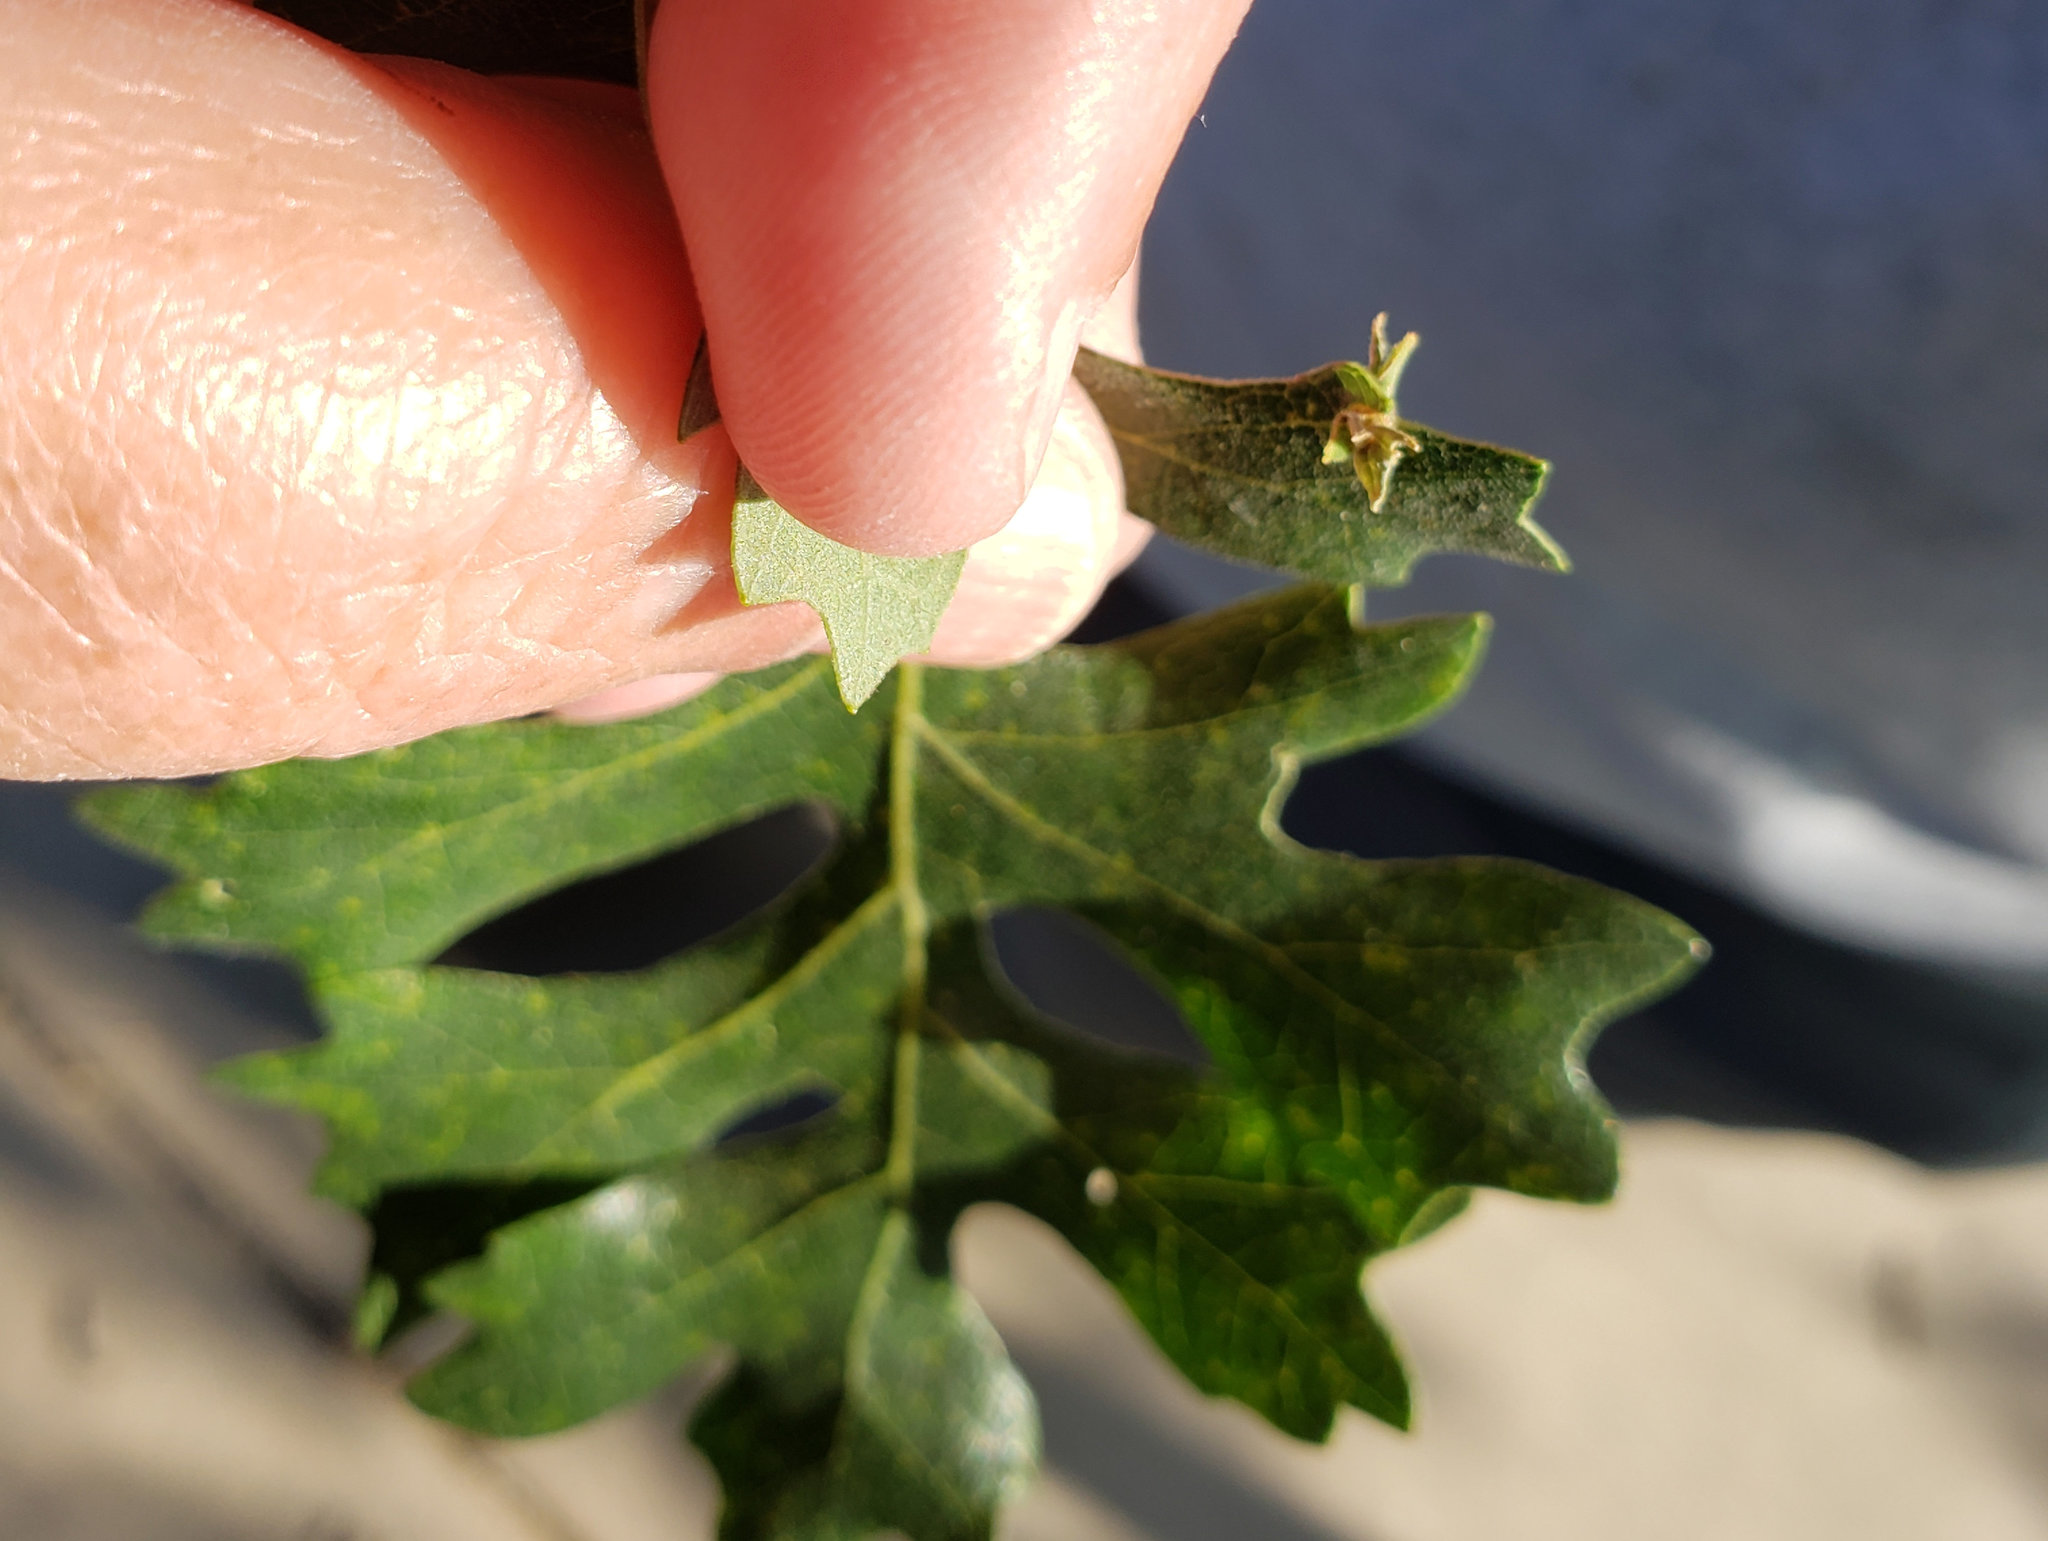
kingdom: Animalia
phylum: Arthropoda
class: Insecta
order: Hymenoptera
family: Cynipidae
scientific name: Cynipidae
